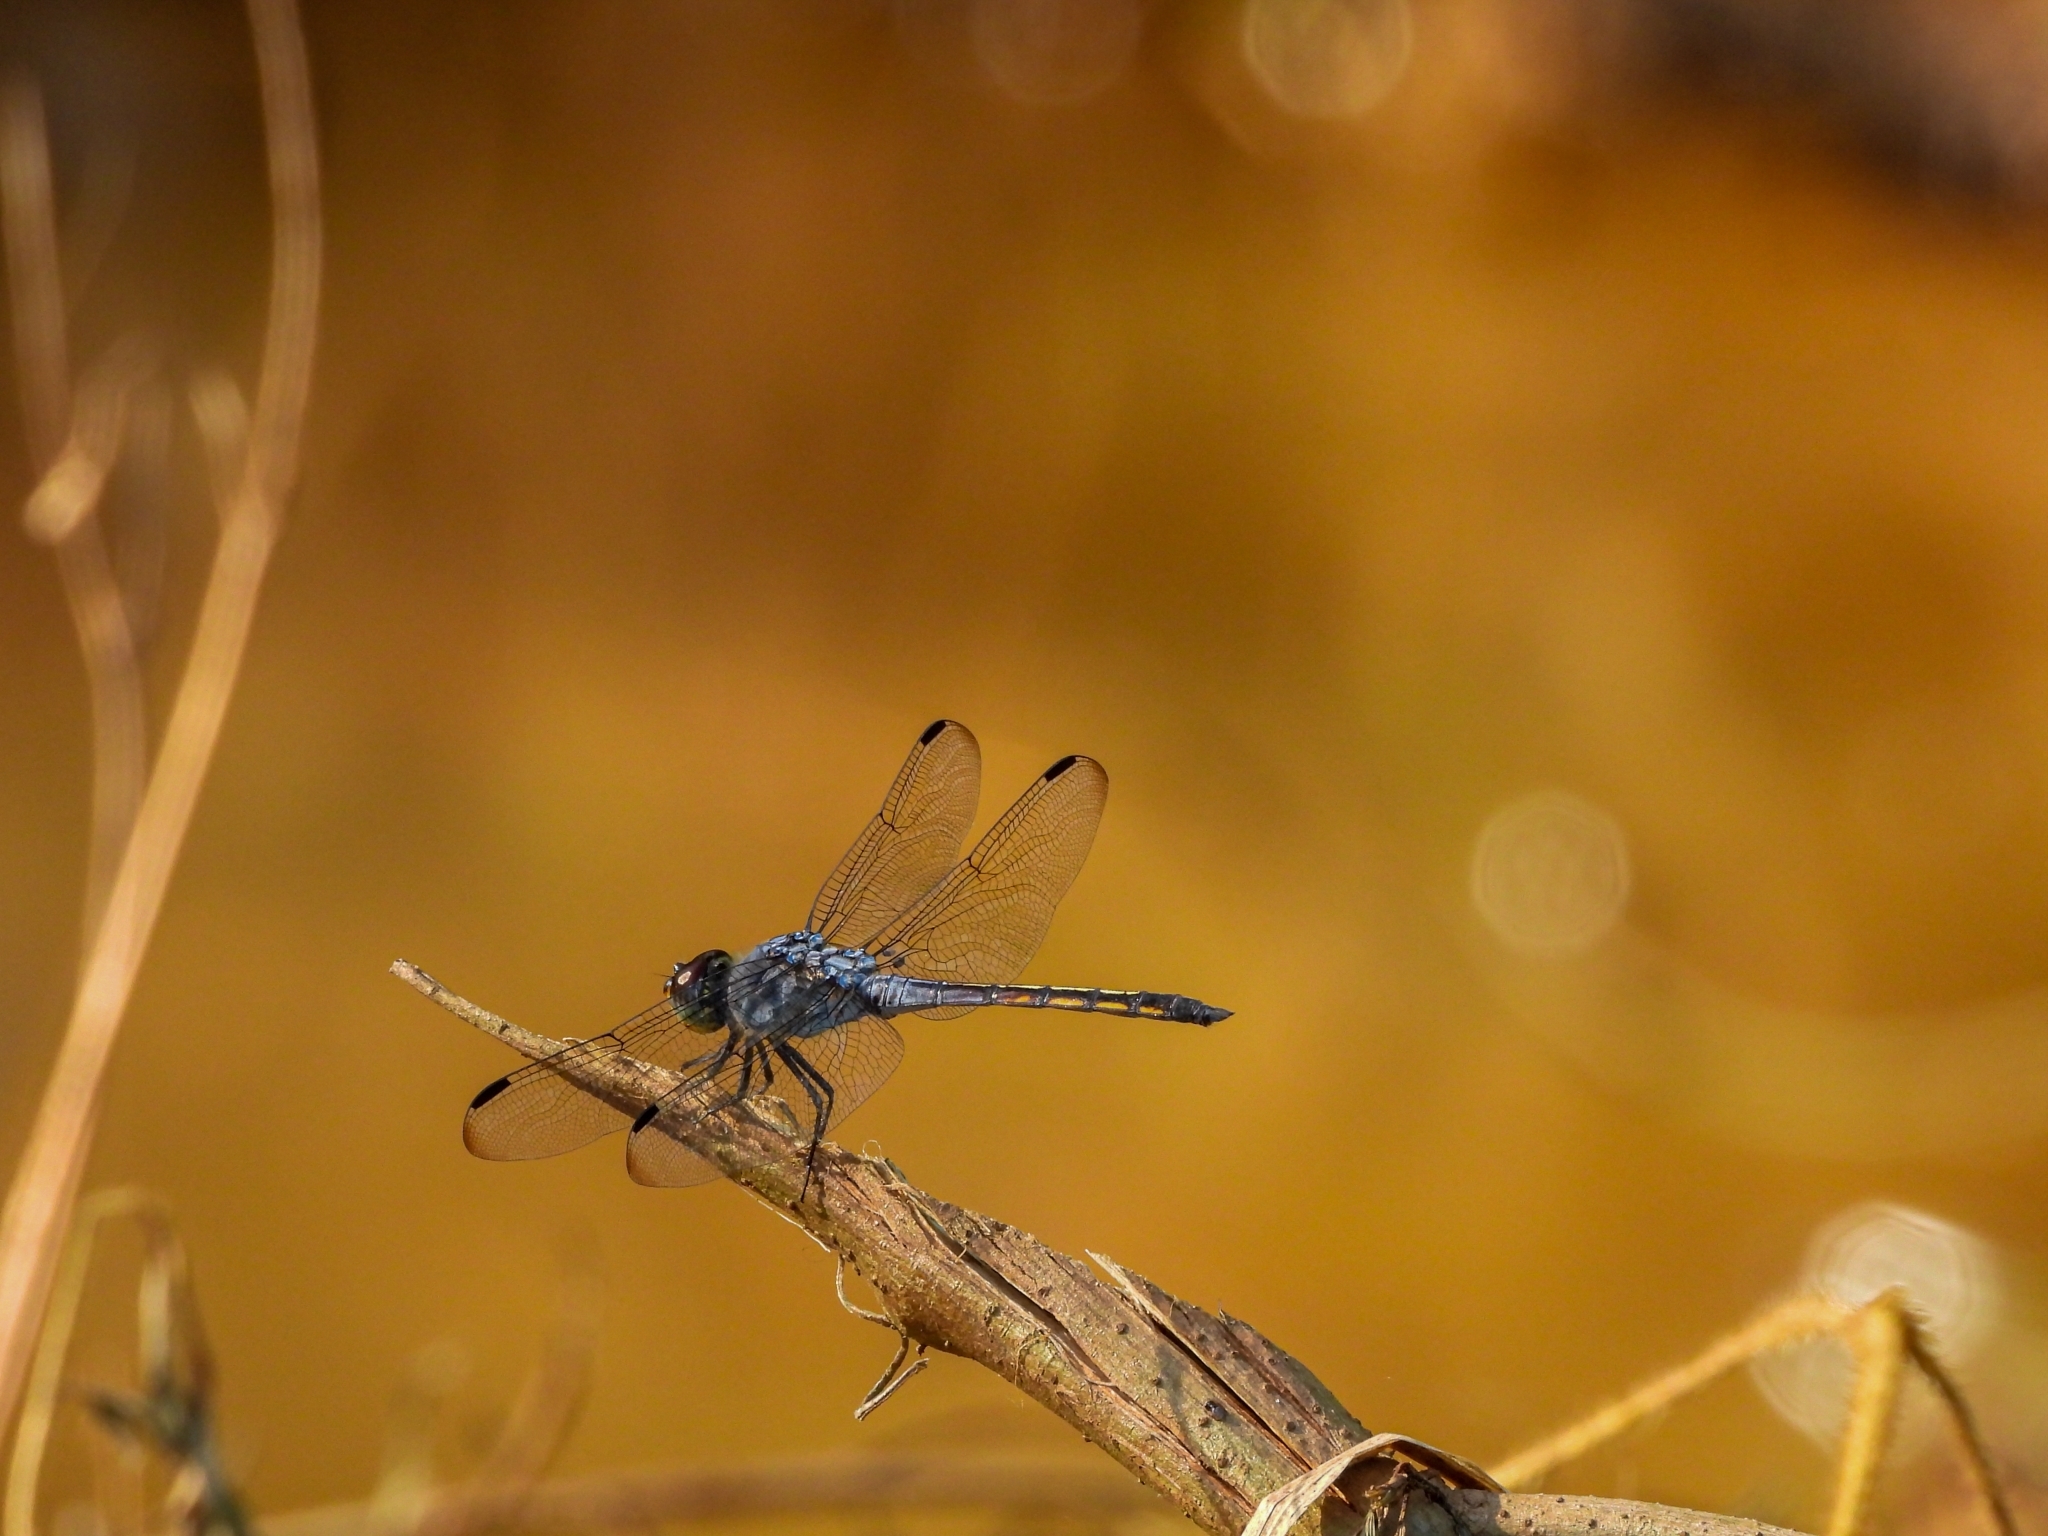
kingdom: Animalia
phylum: Arthropoda
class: Insecta
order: Odonata
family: Libellulidae
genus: Potamarcha
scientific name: Potamarcha congener
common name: Blue chaser
